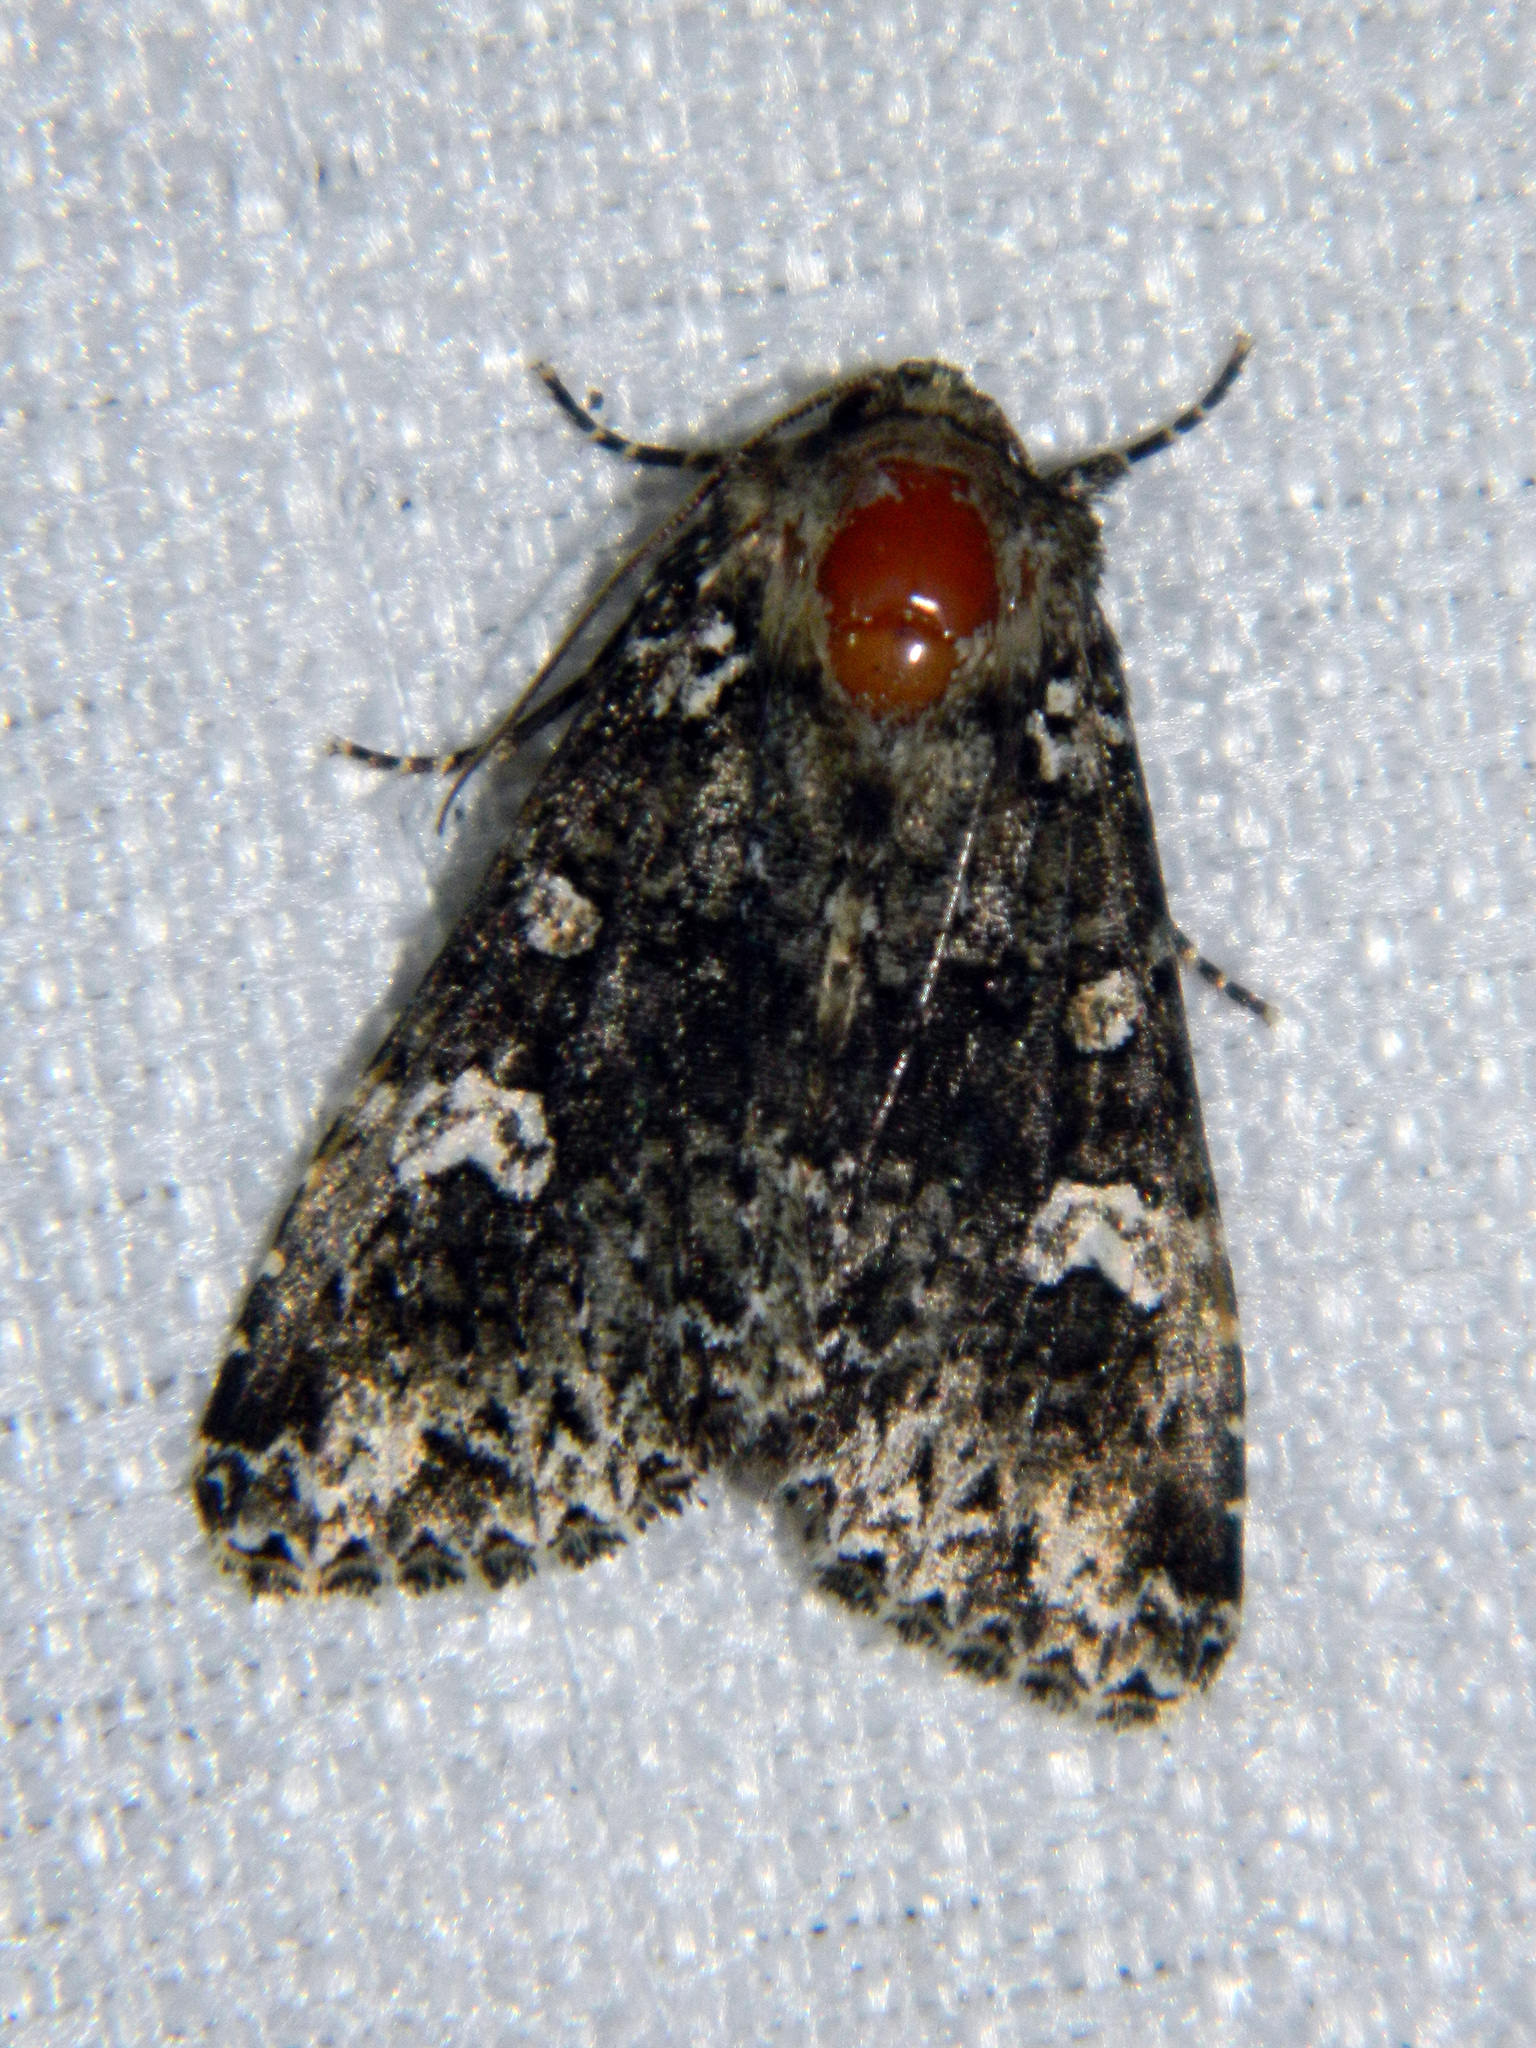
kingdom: Animalia
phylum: Arthropoda
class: Insecta
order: Lepidoptera
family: Noctuidae
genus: Melanchra
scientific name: Melanchra adjuncta
